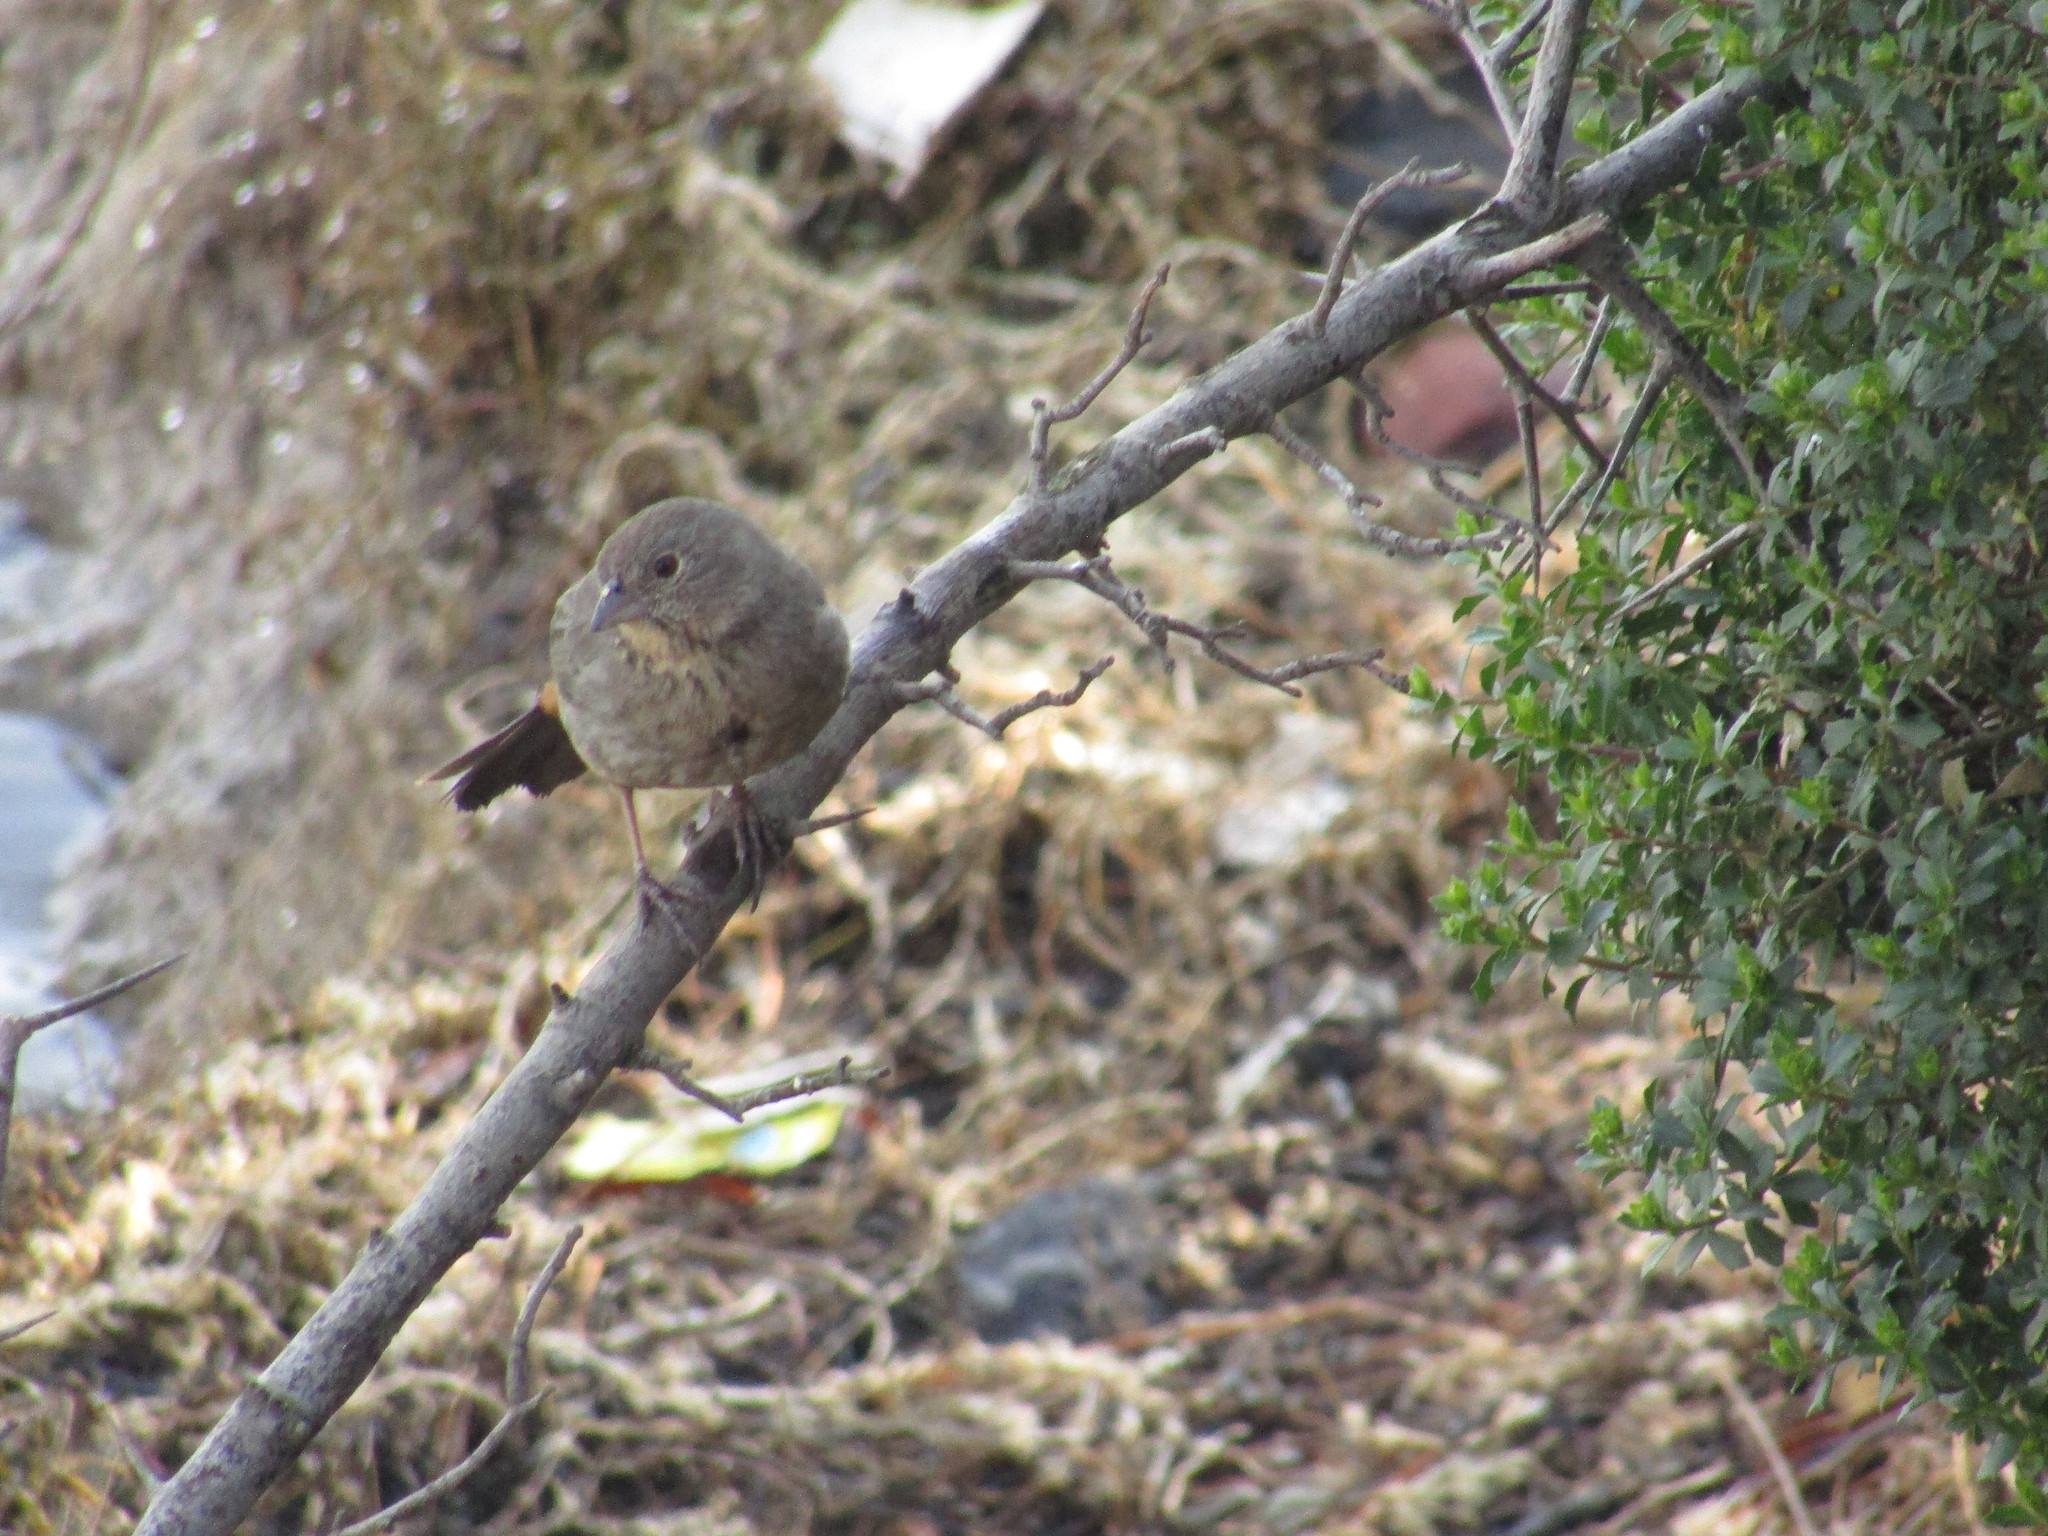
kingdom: Animalia
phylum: Chordata
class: Aves
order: Passeriformes
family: Passerellidae
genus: Melozone
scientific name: Melozone fusca
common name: Canyon towhee
